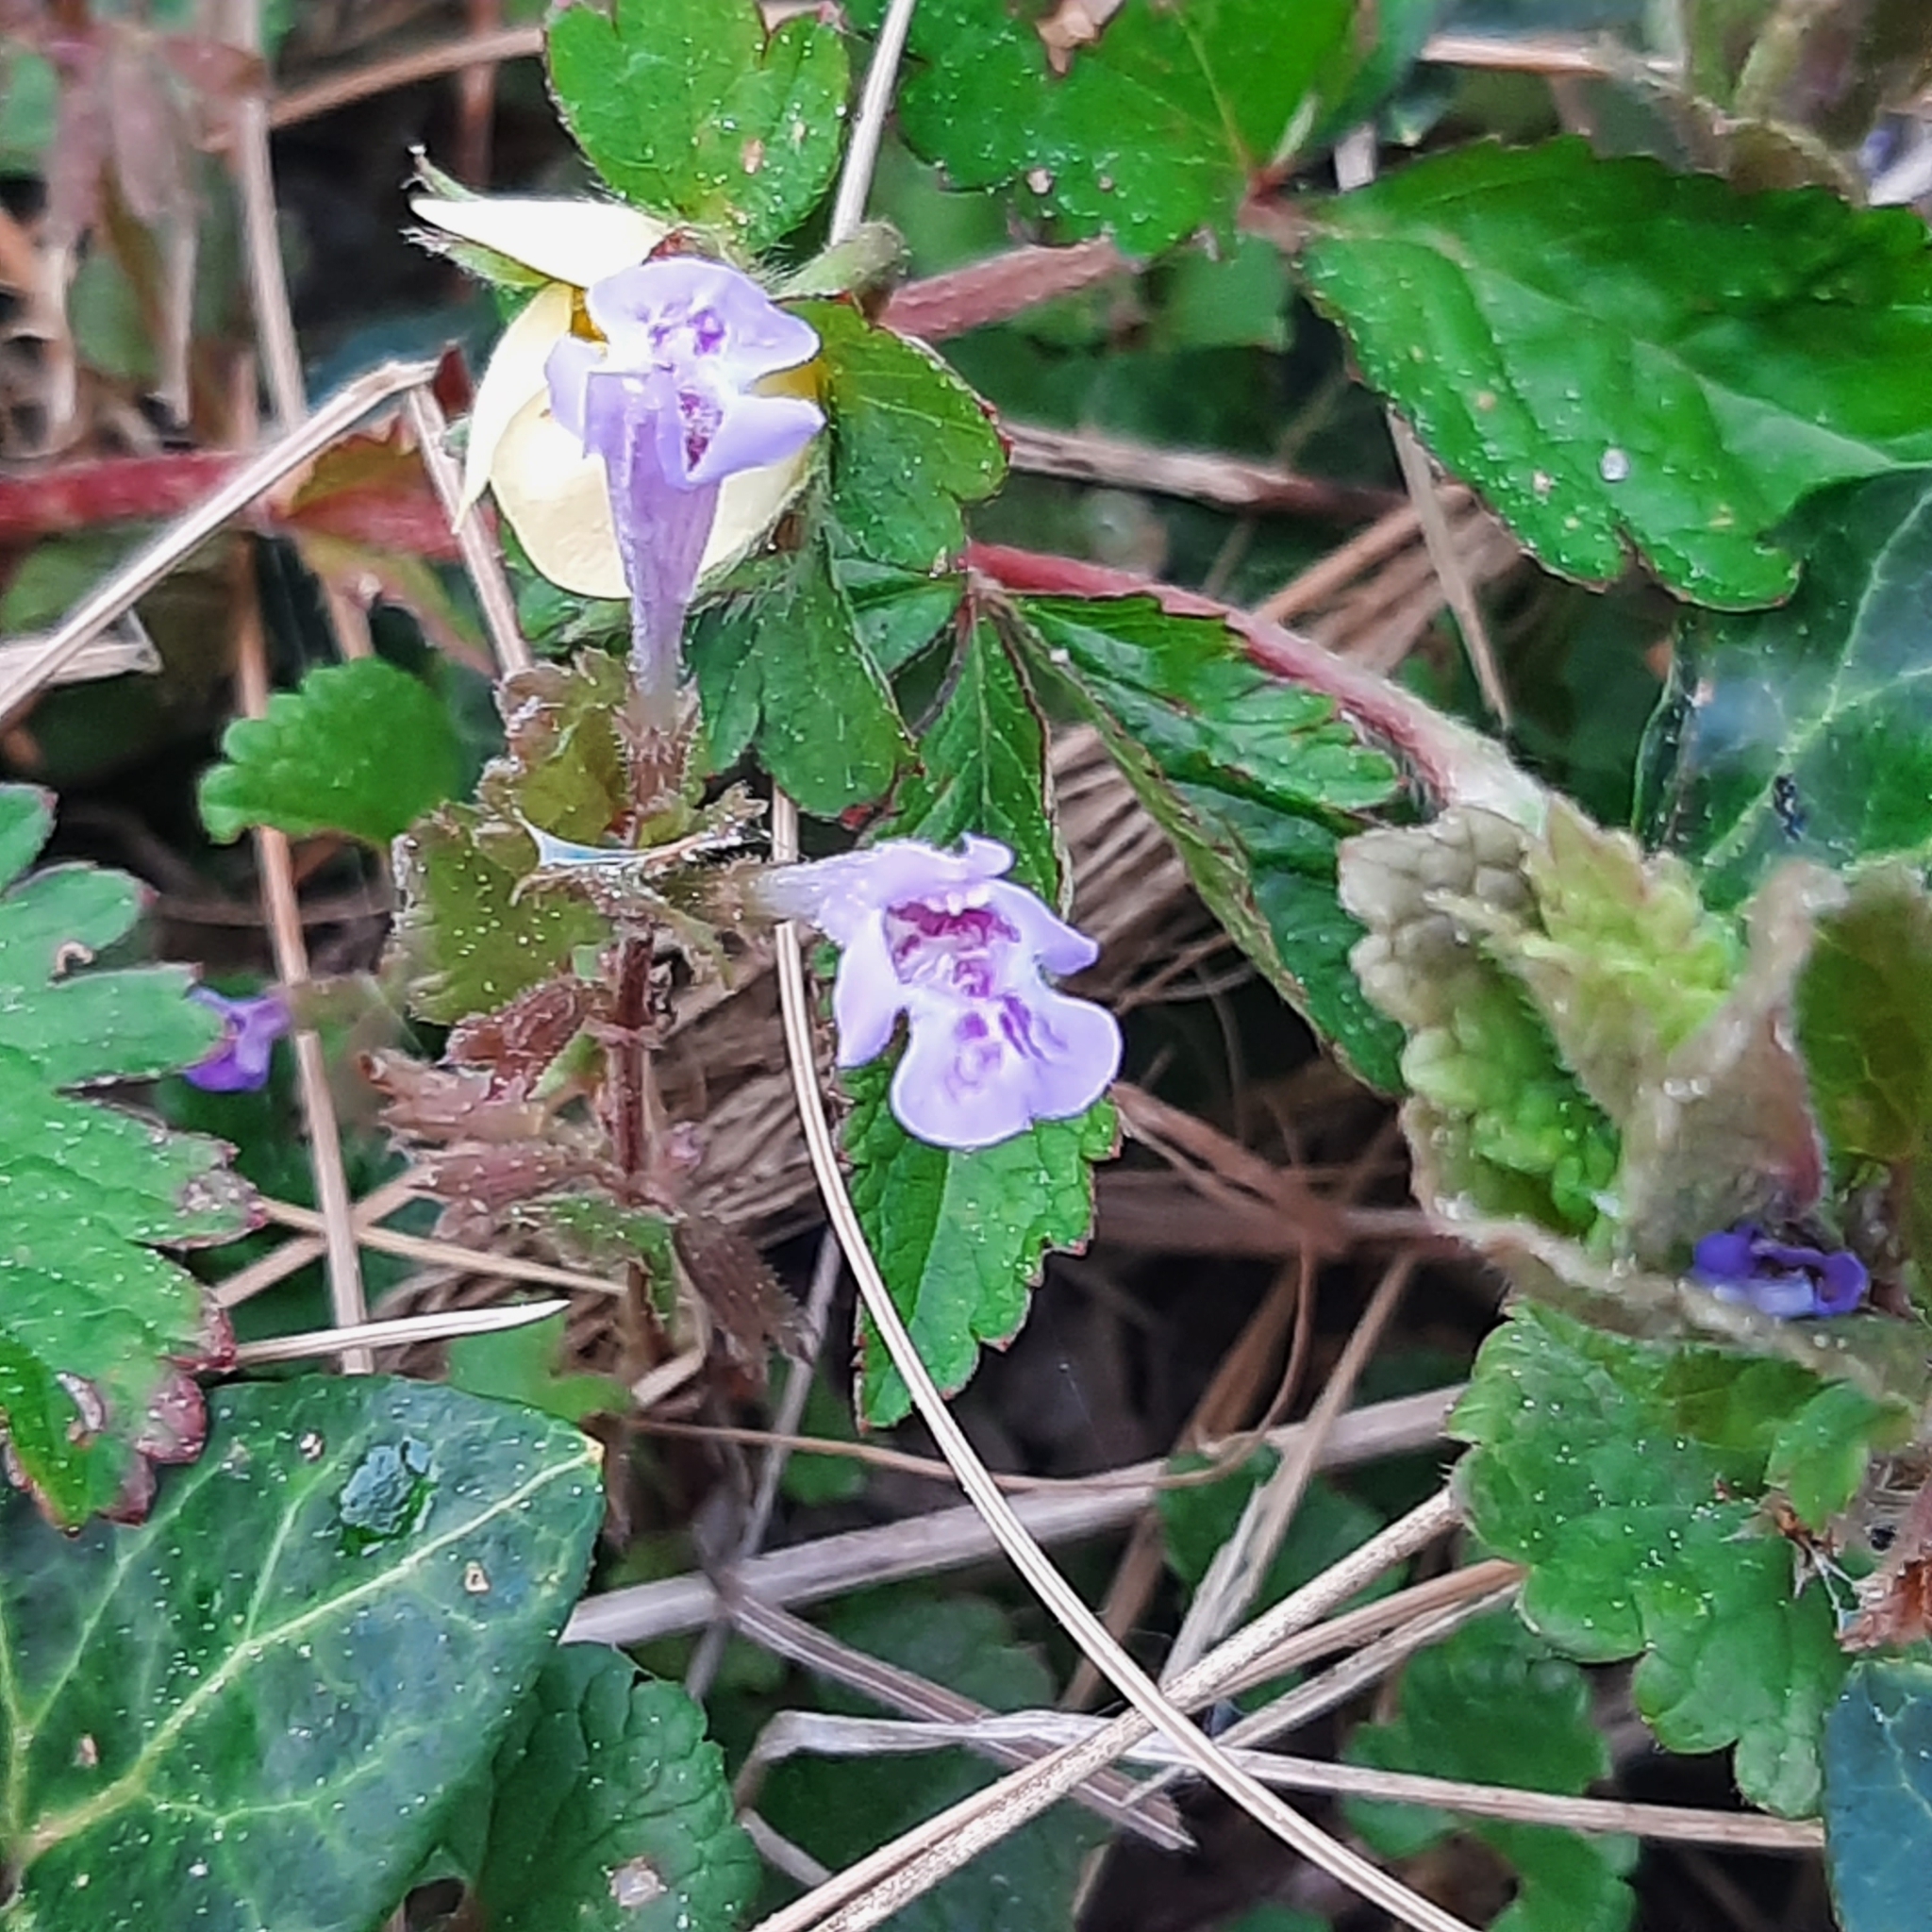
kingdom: Plantae
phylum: Tracheophyta
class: Magnoliopsida
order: Lamiales
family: Lamiaceae
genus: Glechoma
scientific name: Glechoma hederacea
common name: Ground ivy
